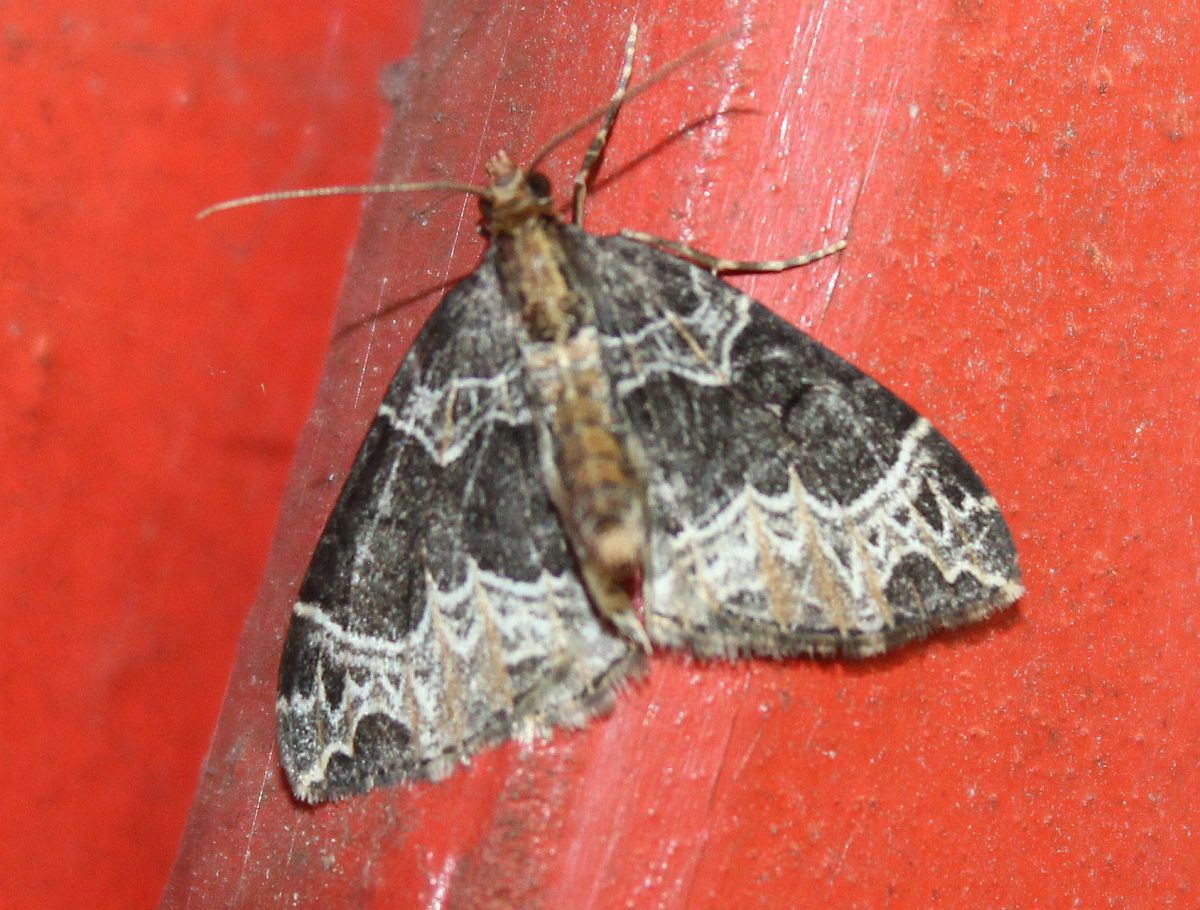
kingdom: Animalia
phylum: Arthropoda
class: Insecta
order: Lepidoptera
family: Geometridae
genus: Ecliptopera
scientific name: Ecliptopera silaceata
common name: Small phoenix
